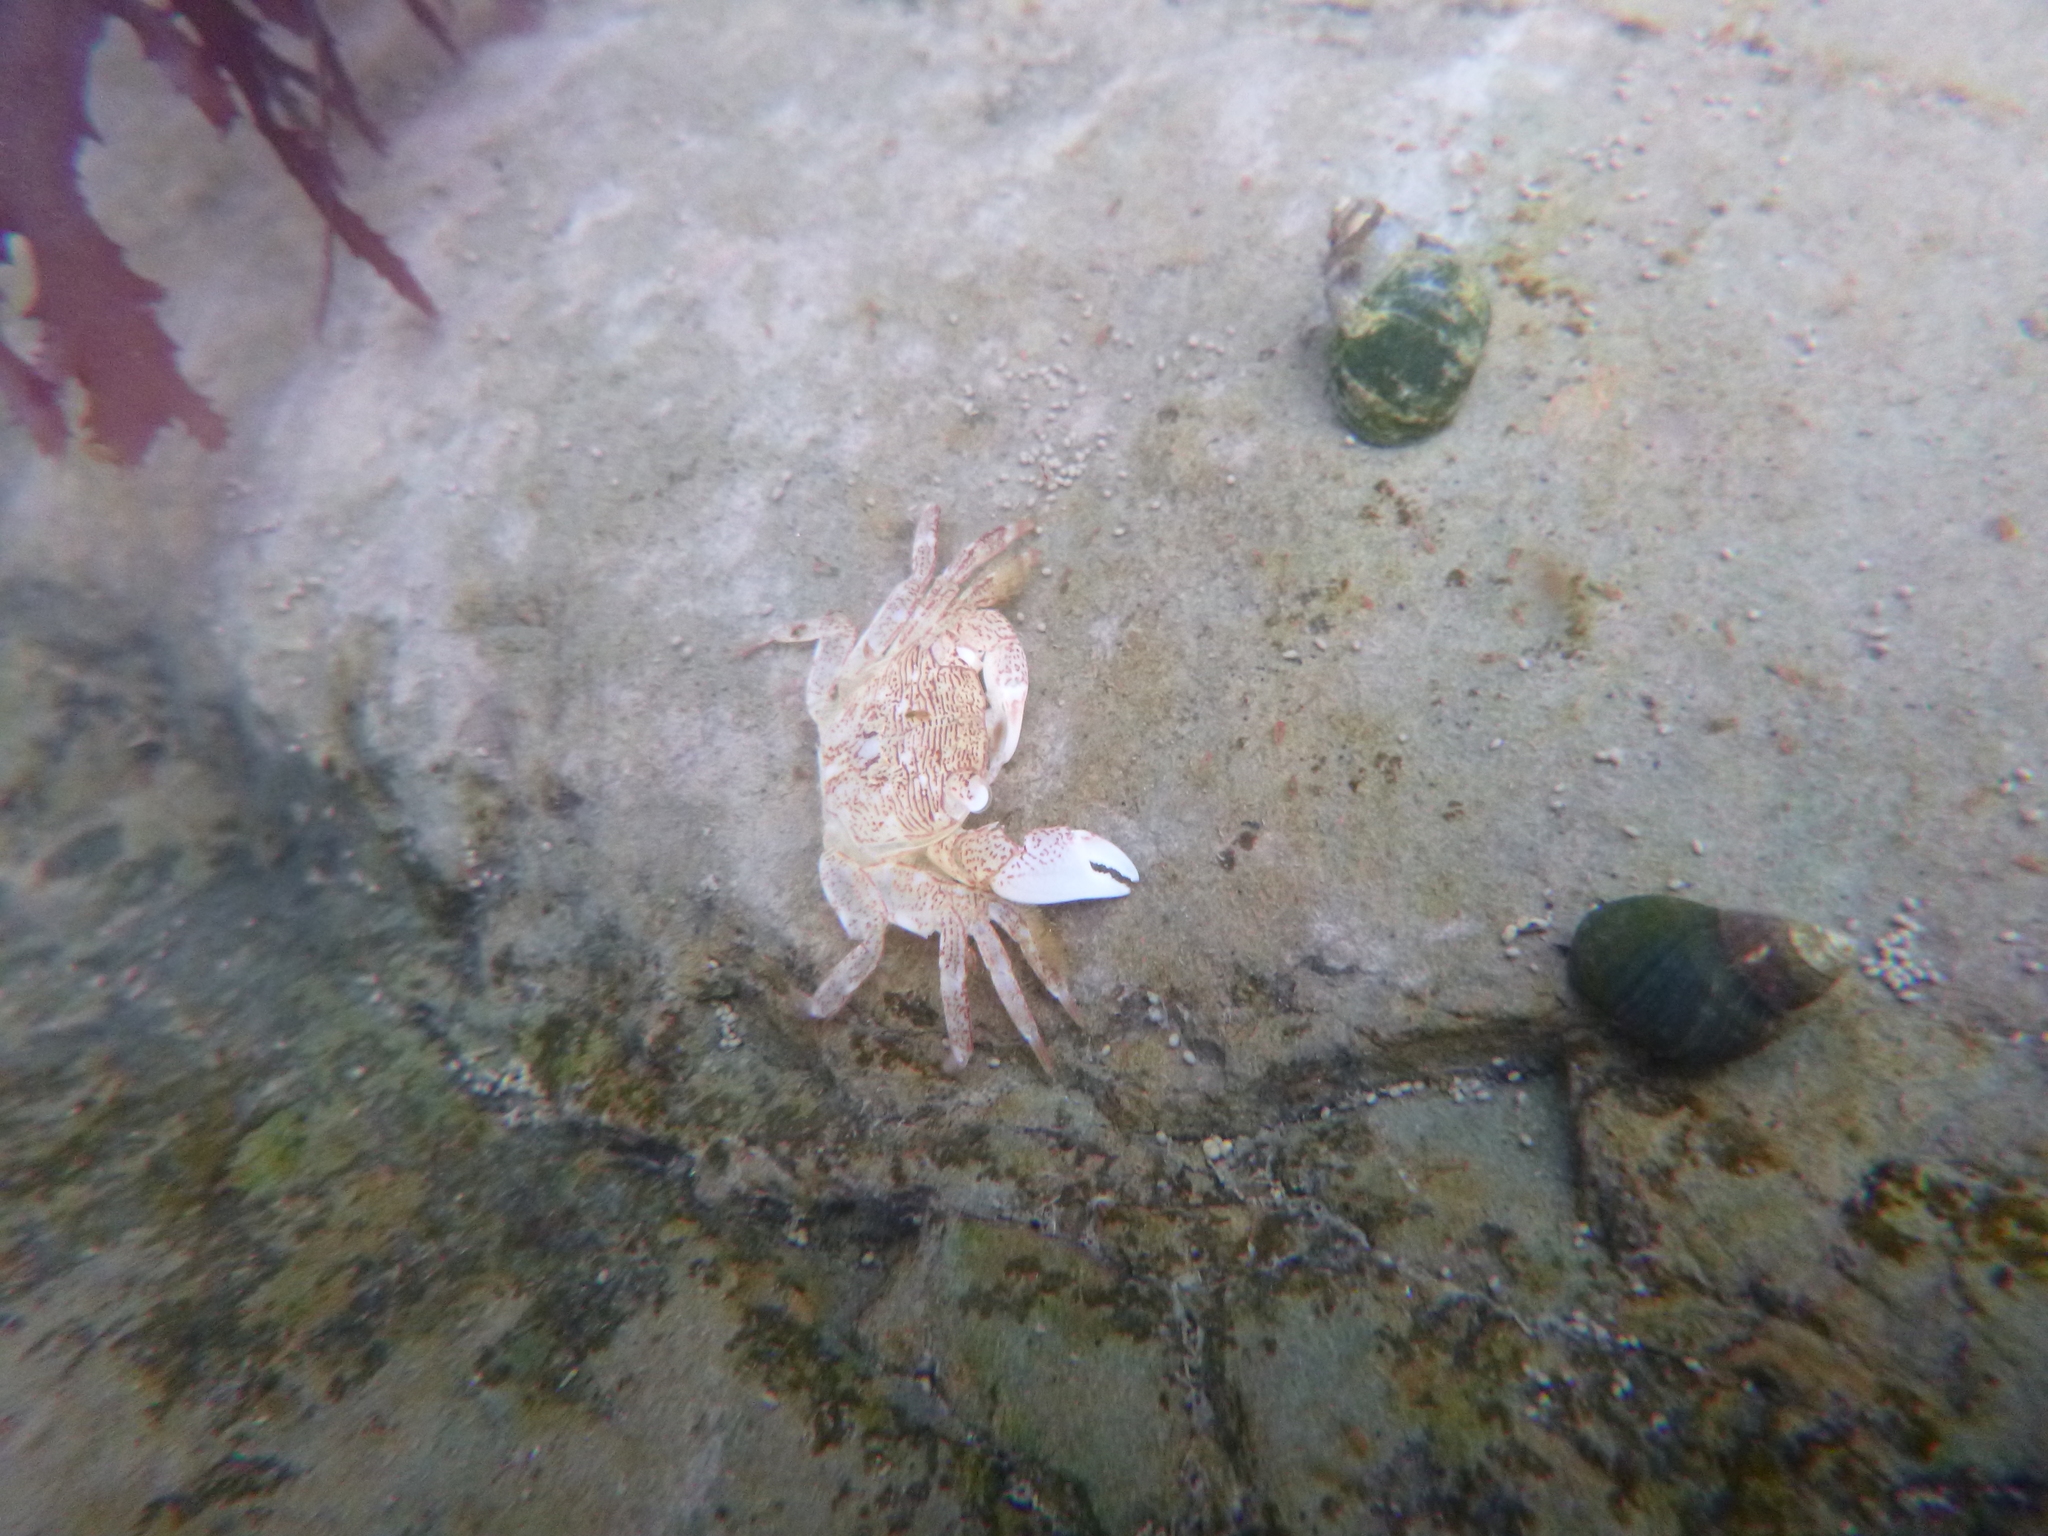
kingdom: Animalia
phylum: Arthropoda
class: Malacostraca
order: Decapoda
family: Grapsidae
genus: Pachygrapsus
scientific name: Pachygrapsus crassipes
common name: Striped shore crab
